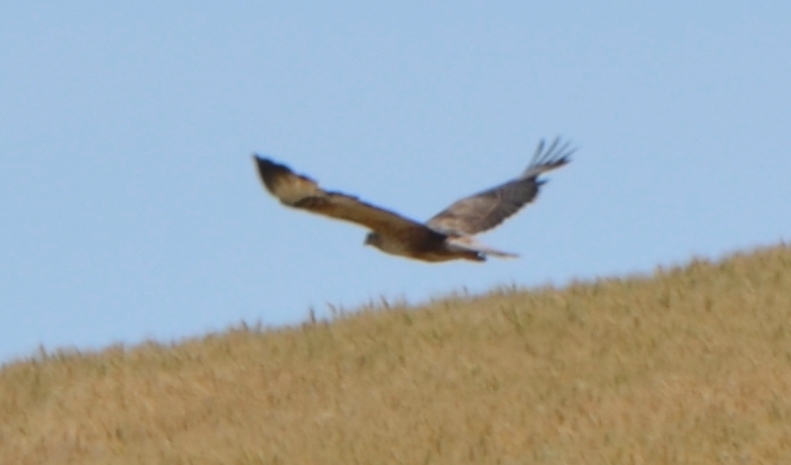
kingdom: Animalia
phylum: Chordata
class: Aves
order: Accipitriformes
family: Accipitridae
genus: Buteo
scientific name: Buteo rufinus
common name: Long-legged buzzard
